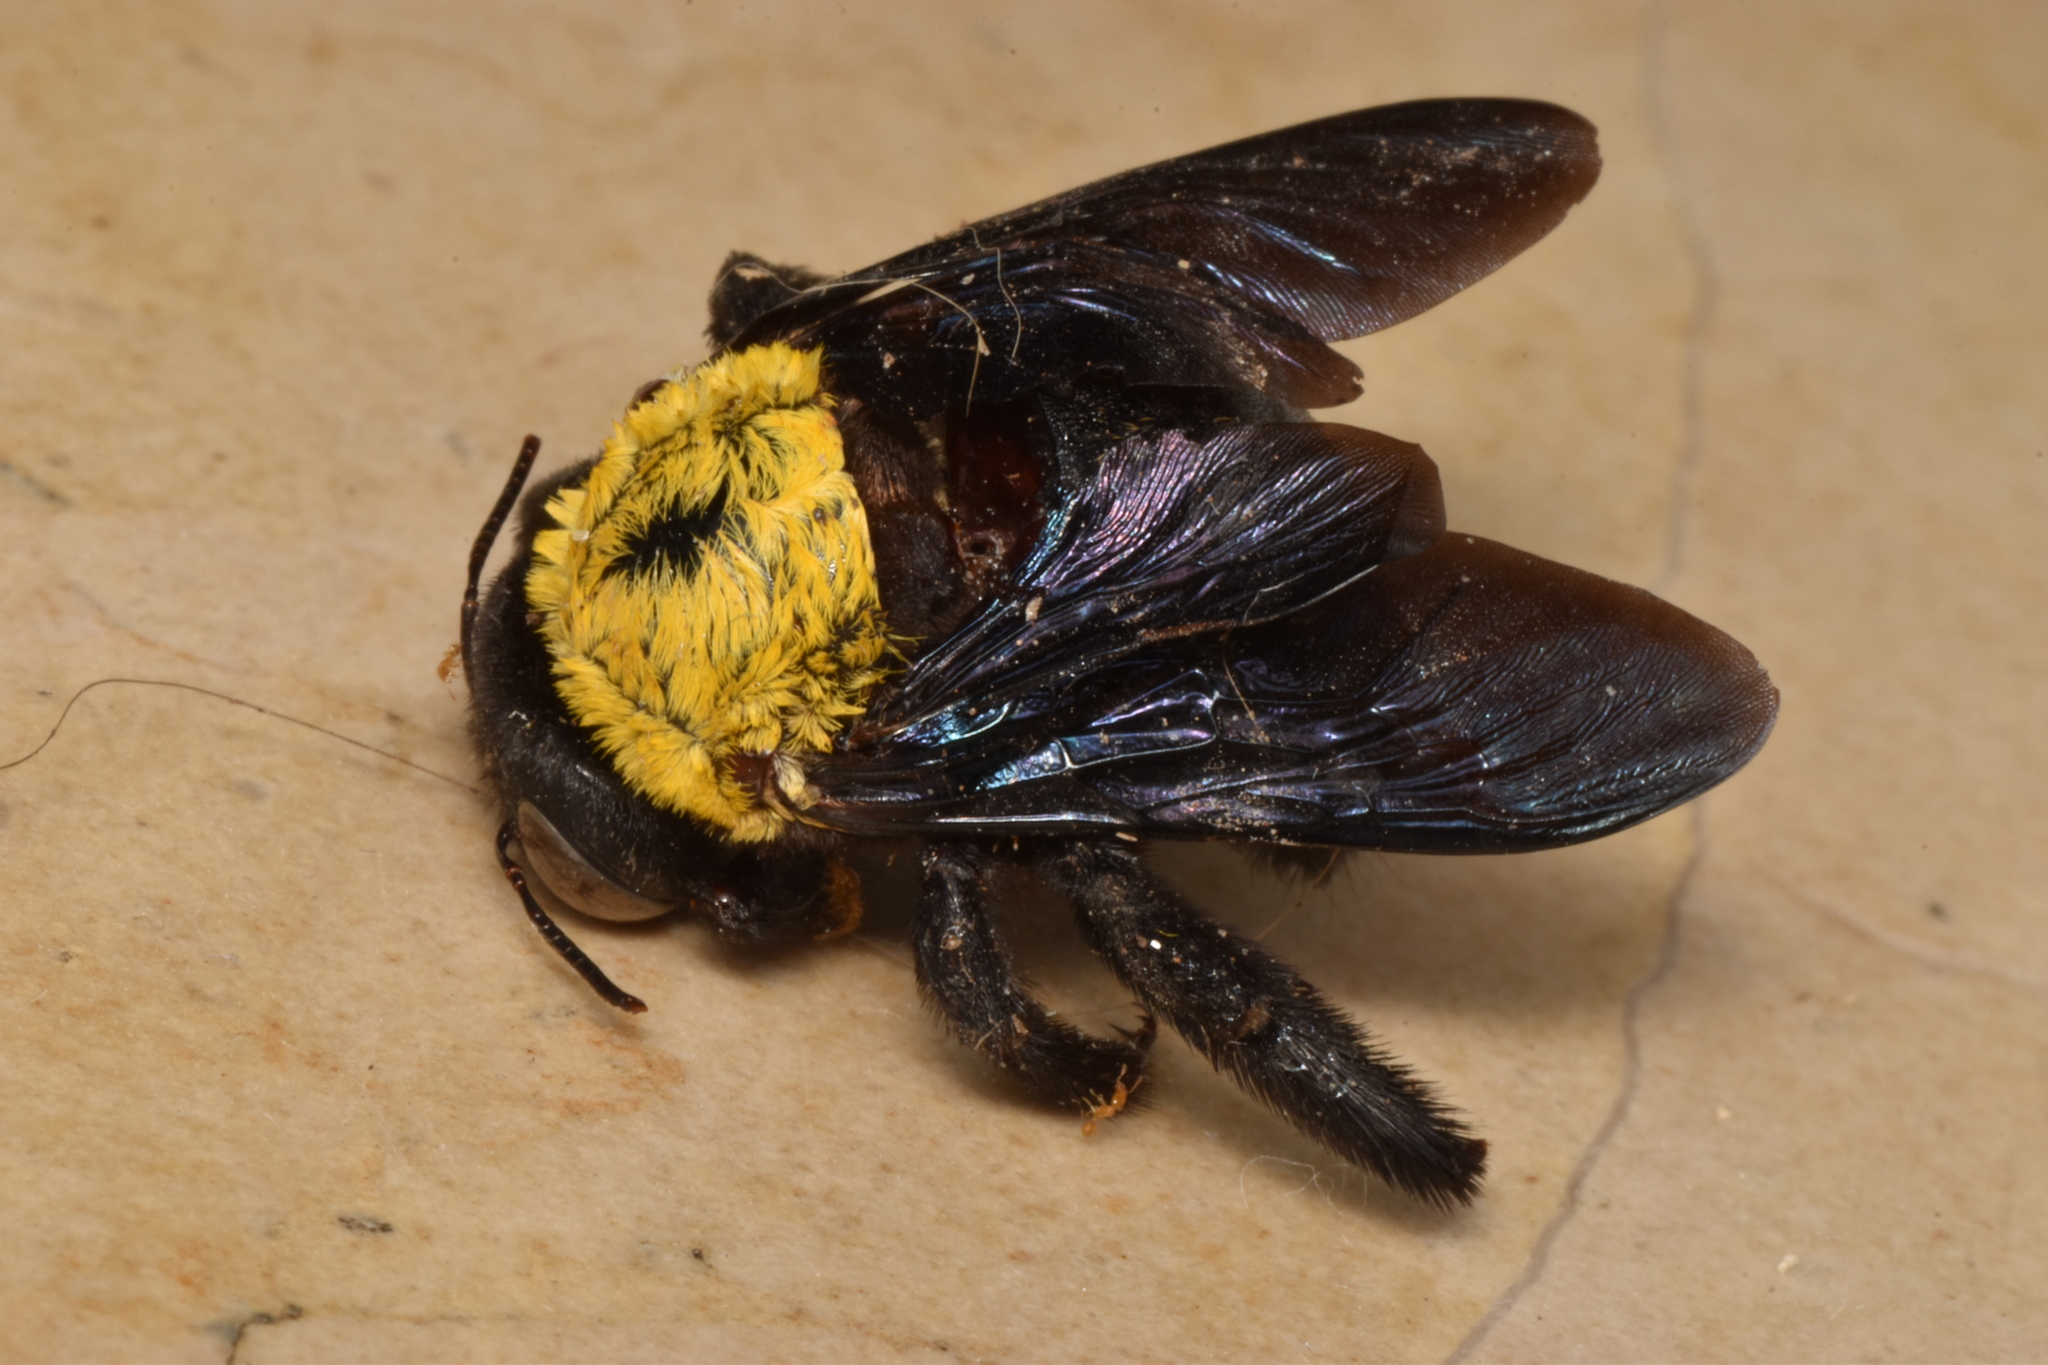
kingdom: Animalia
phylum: Arthropoda
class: Insecta
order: Hymenoptera
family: Apidae
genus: Xylocopa
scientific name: Xylocopa pubescens
